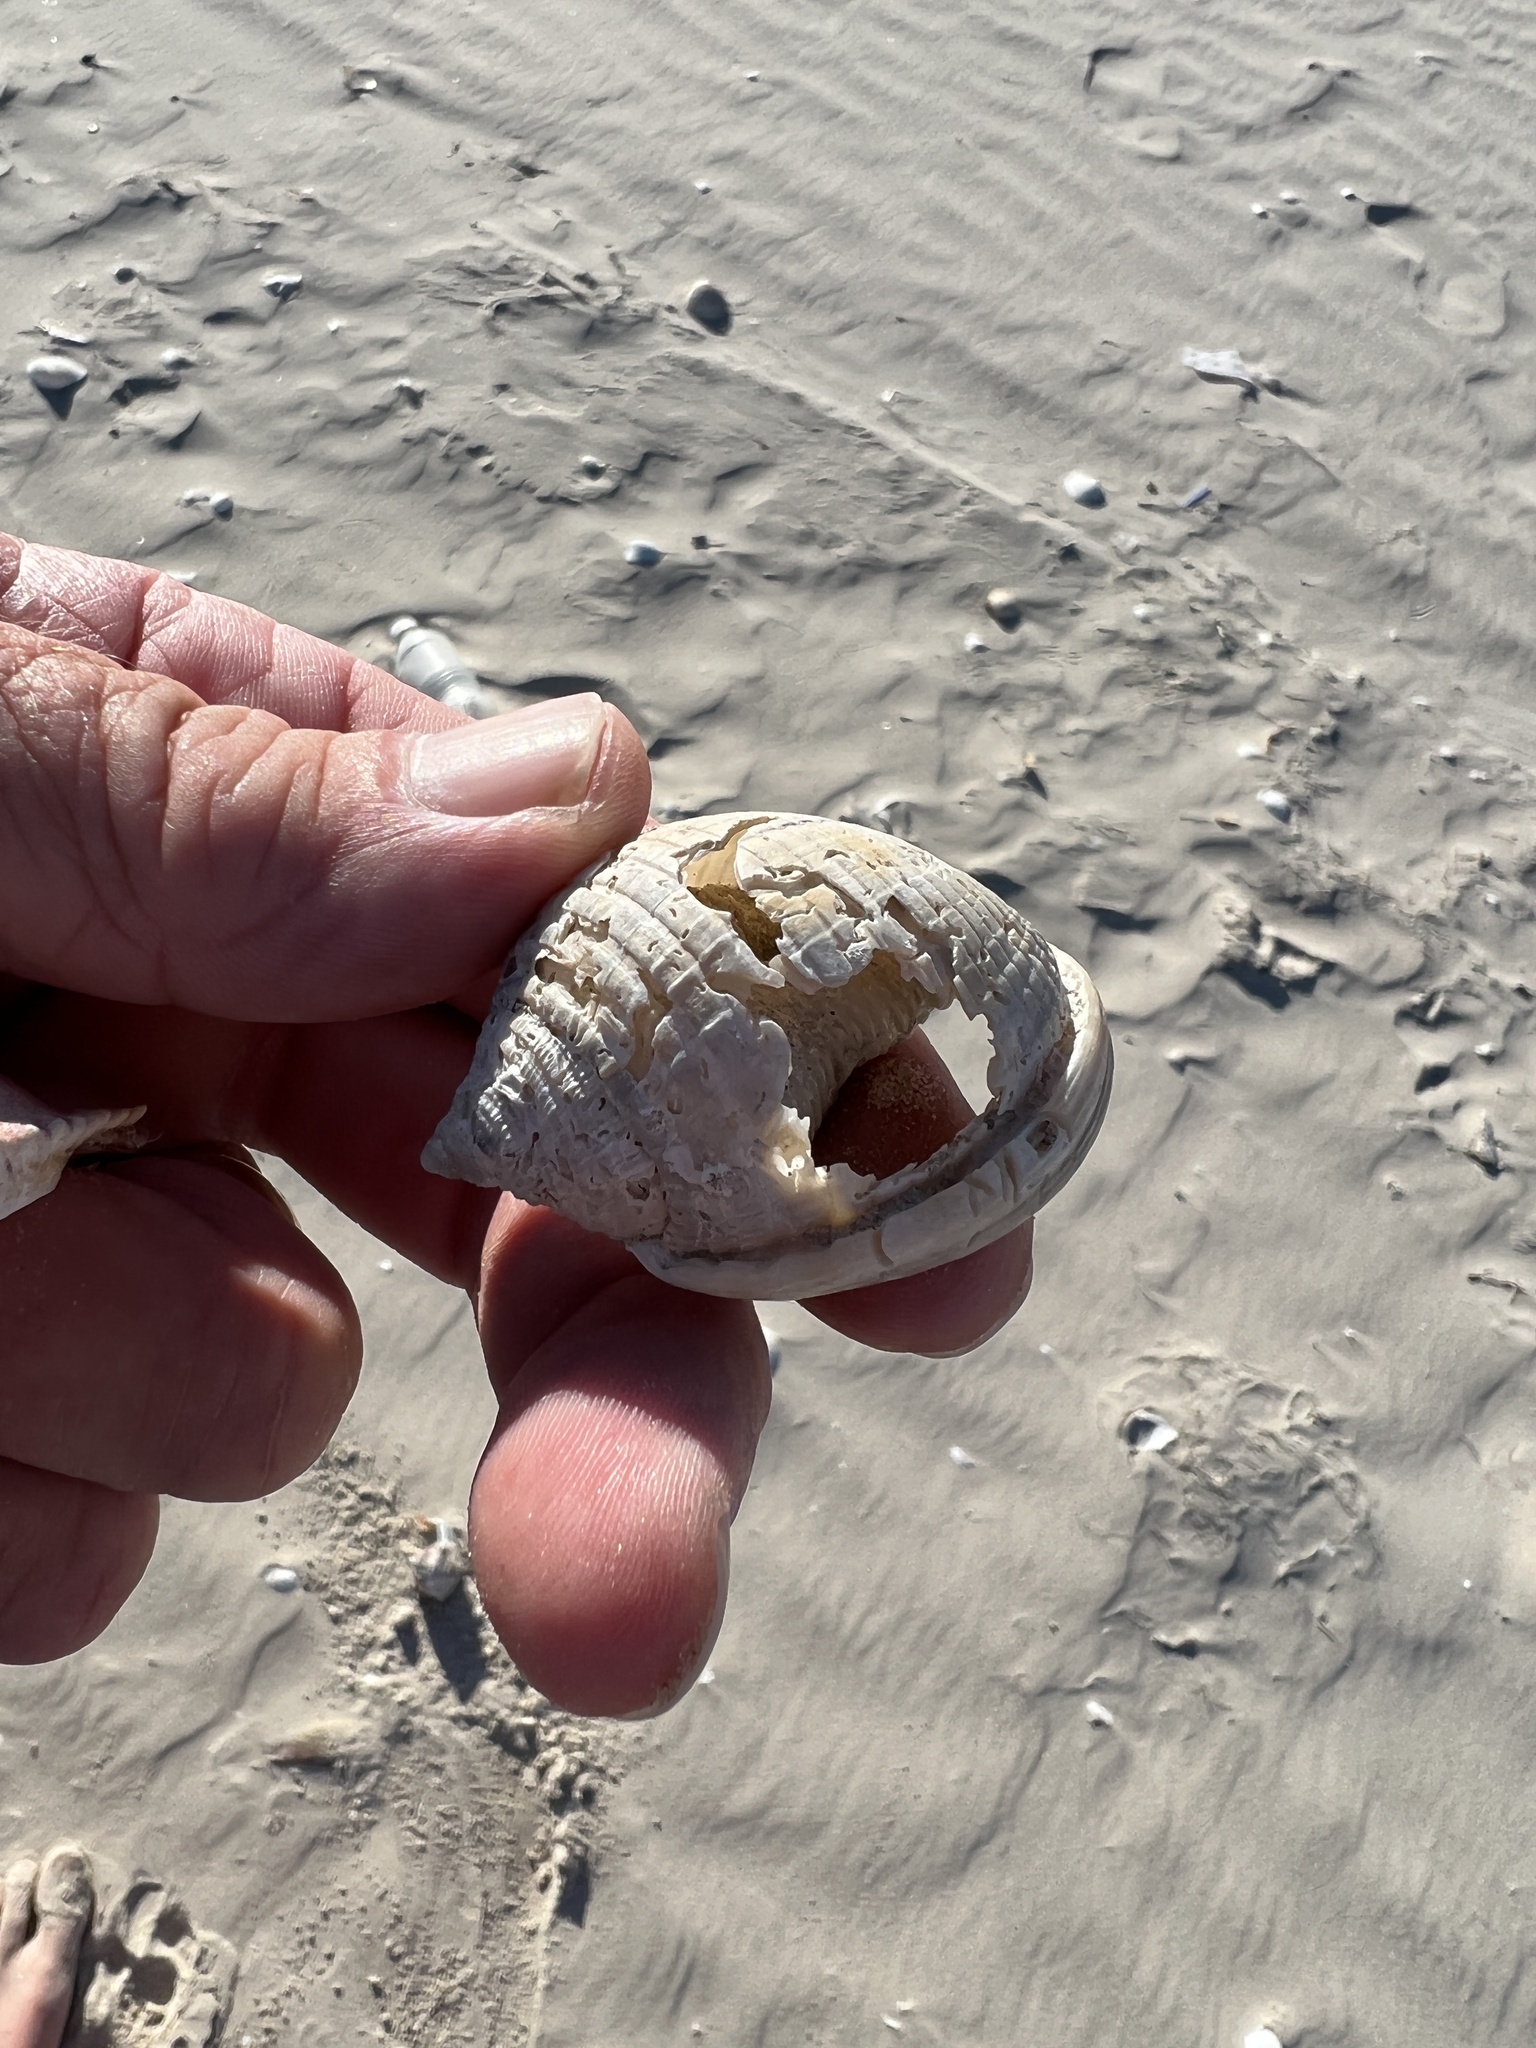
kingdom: Animalia
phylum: Mollusca
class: Gastropoda
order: Littorinimorpha
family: Cassidae
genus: Semicassis
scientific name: Semicassis granulata
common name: Scotch bonnet
